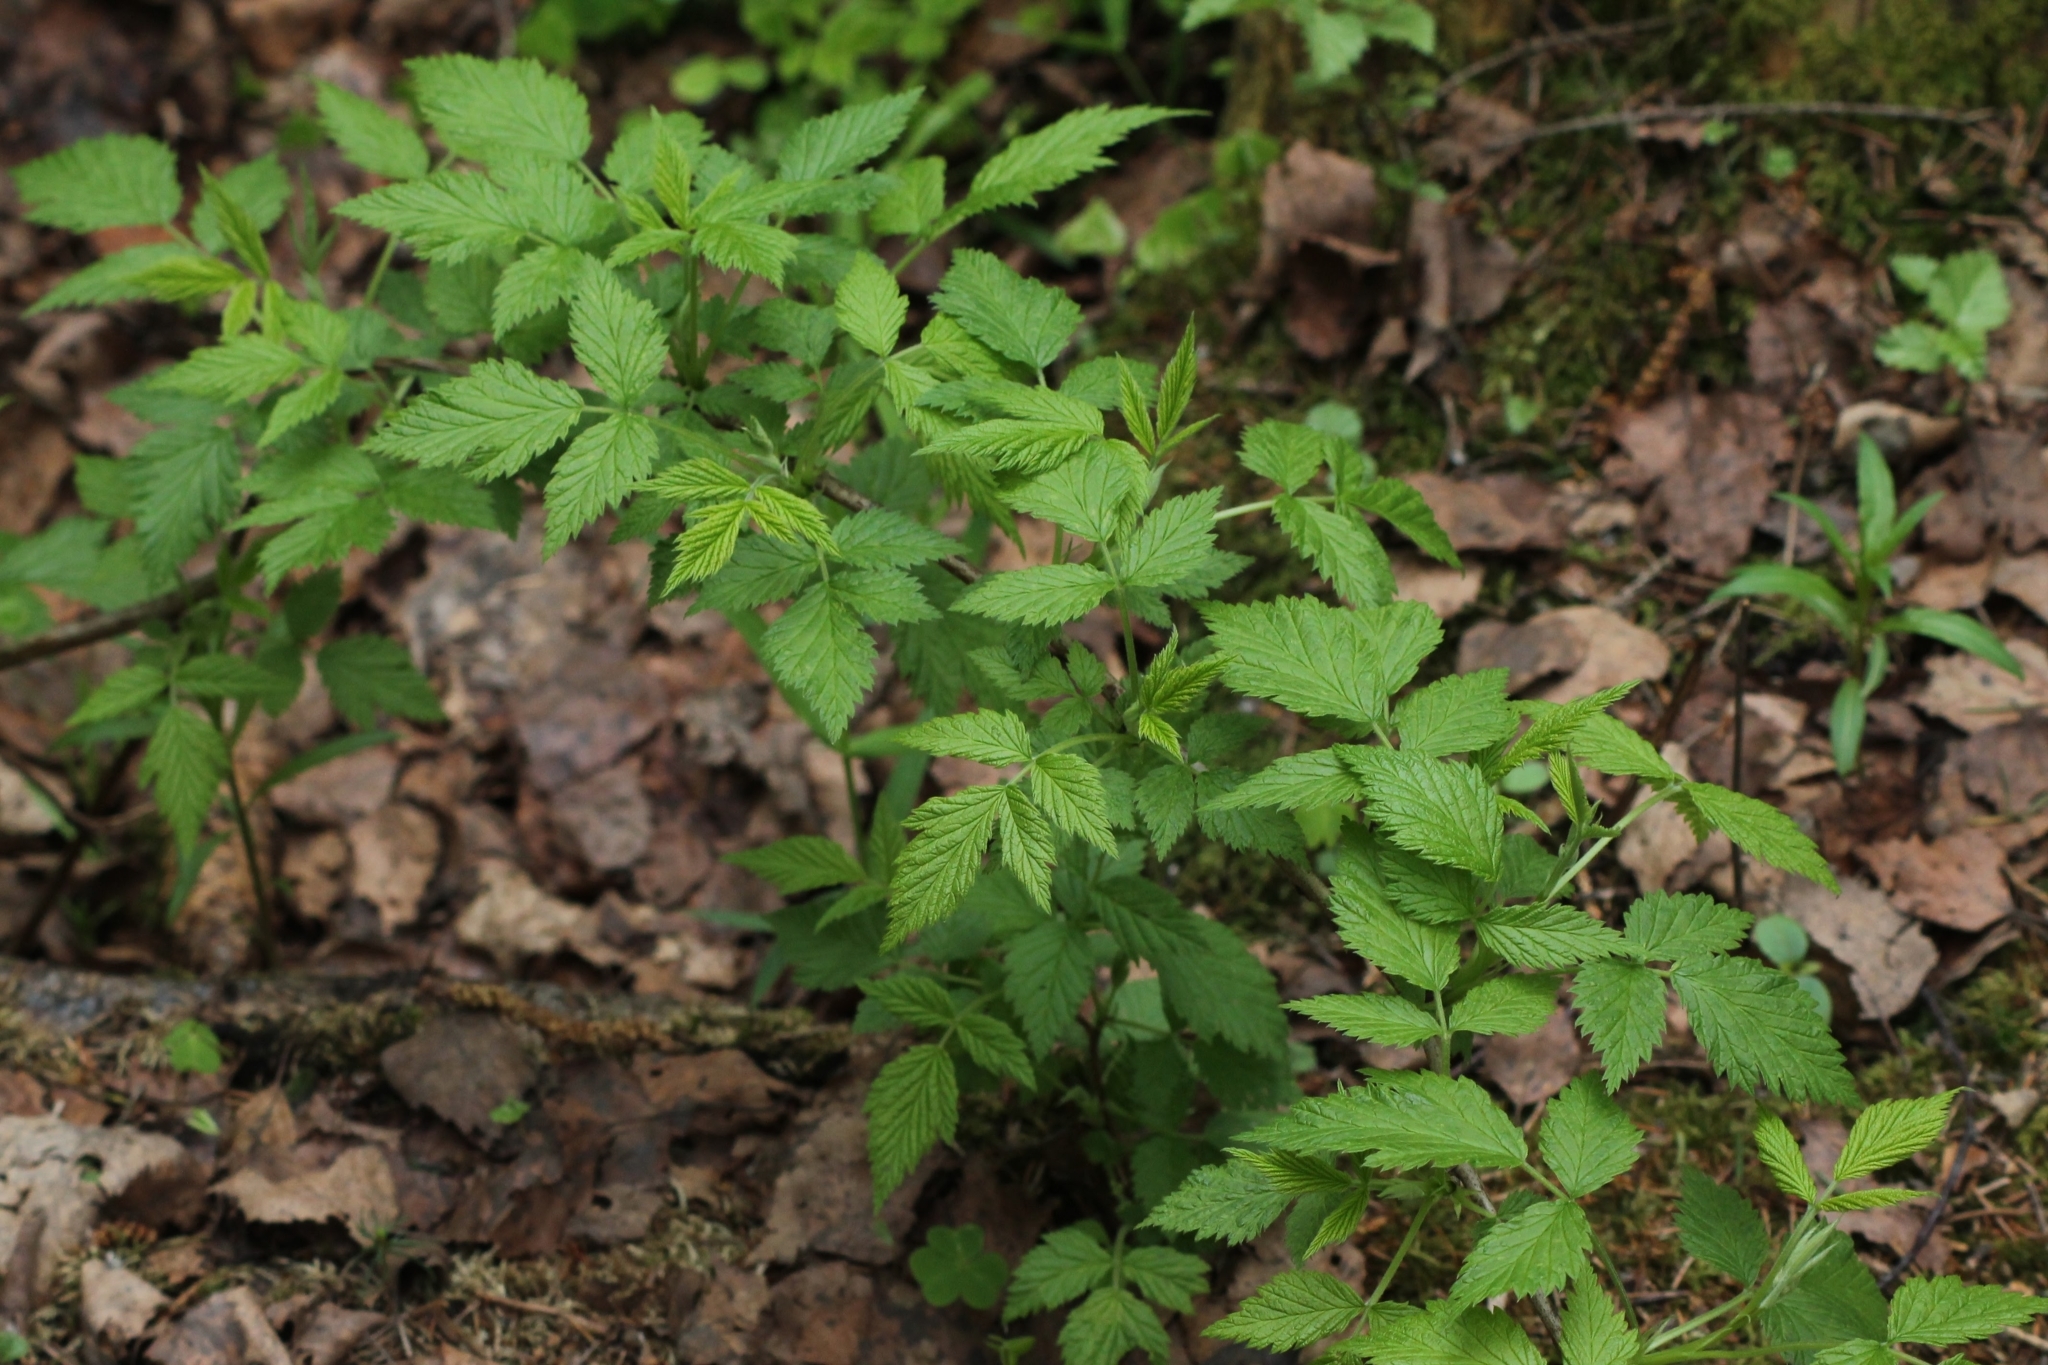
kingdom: Plantae
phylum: Tracheophyta
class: Magnoliopsida
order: Rosales
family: Rosaceae
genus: Rubus
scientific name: Rubus idaeus
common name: Raspberry
